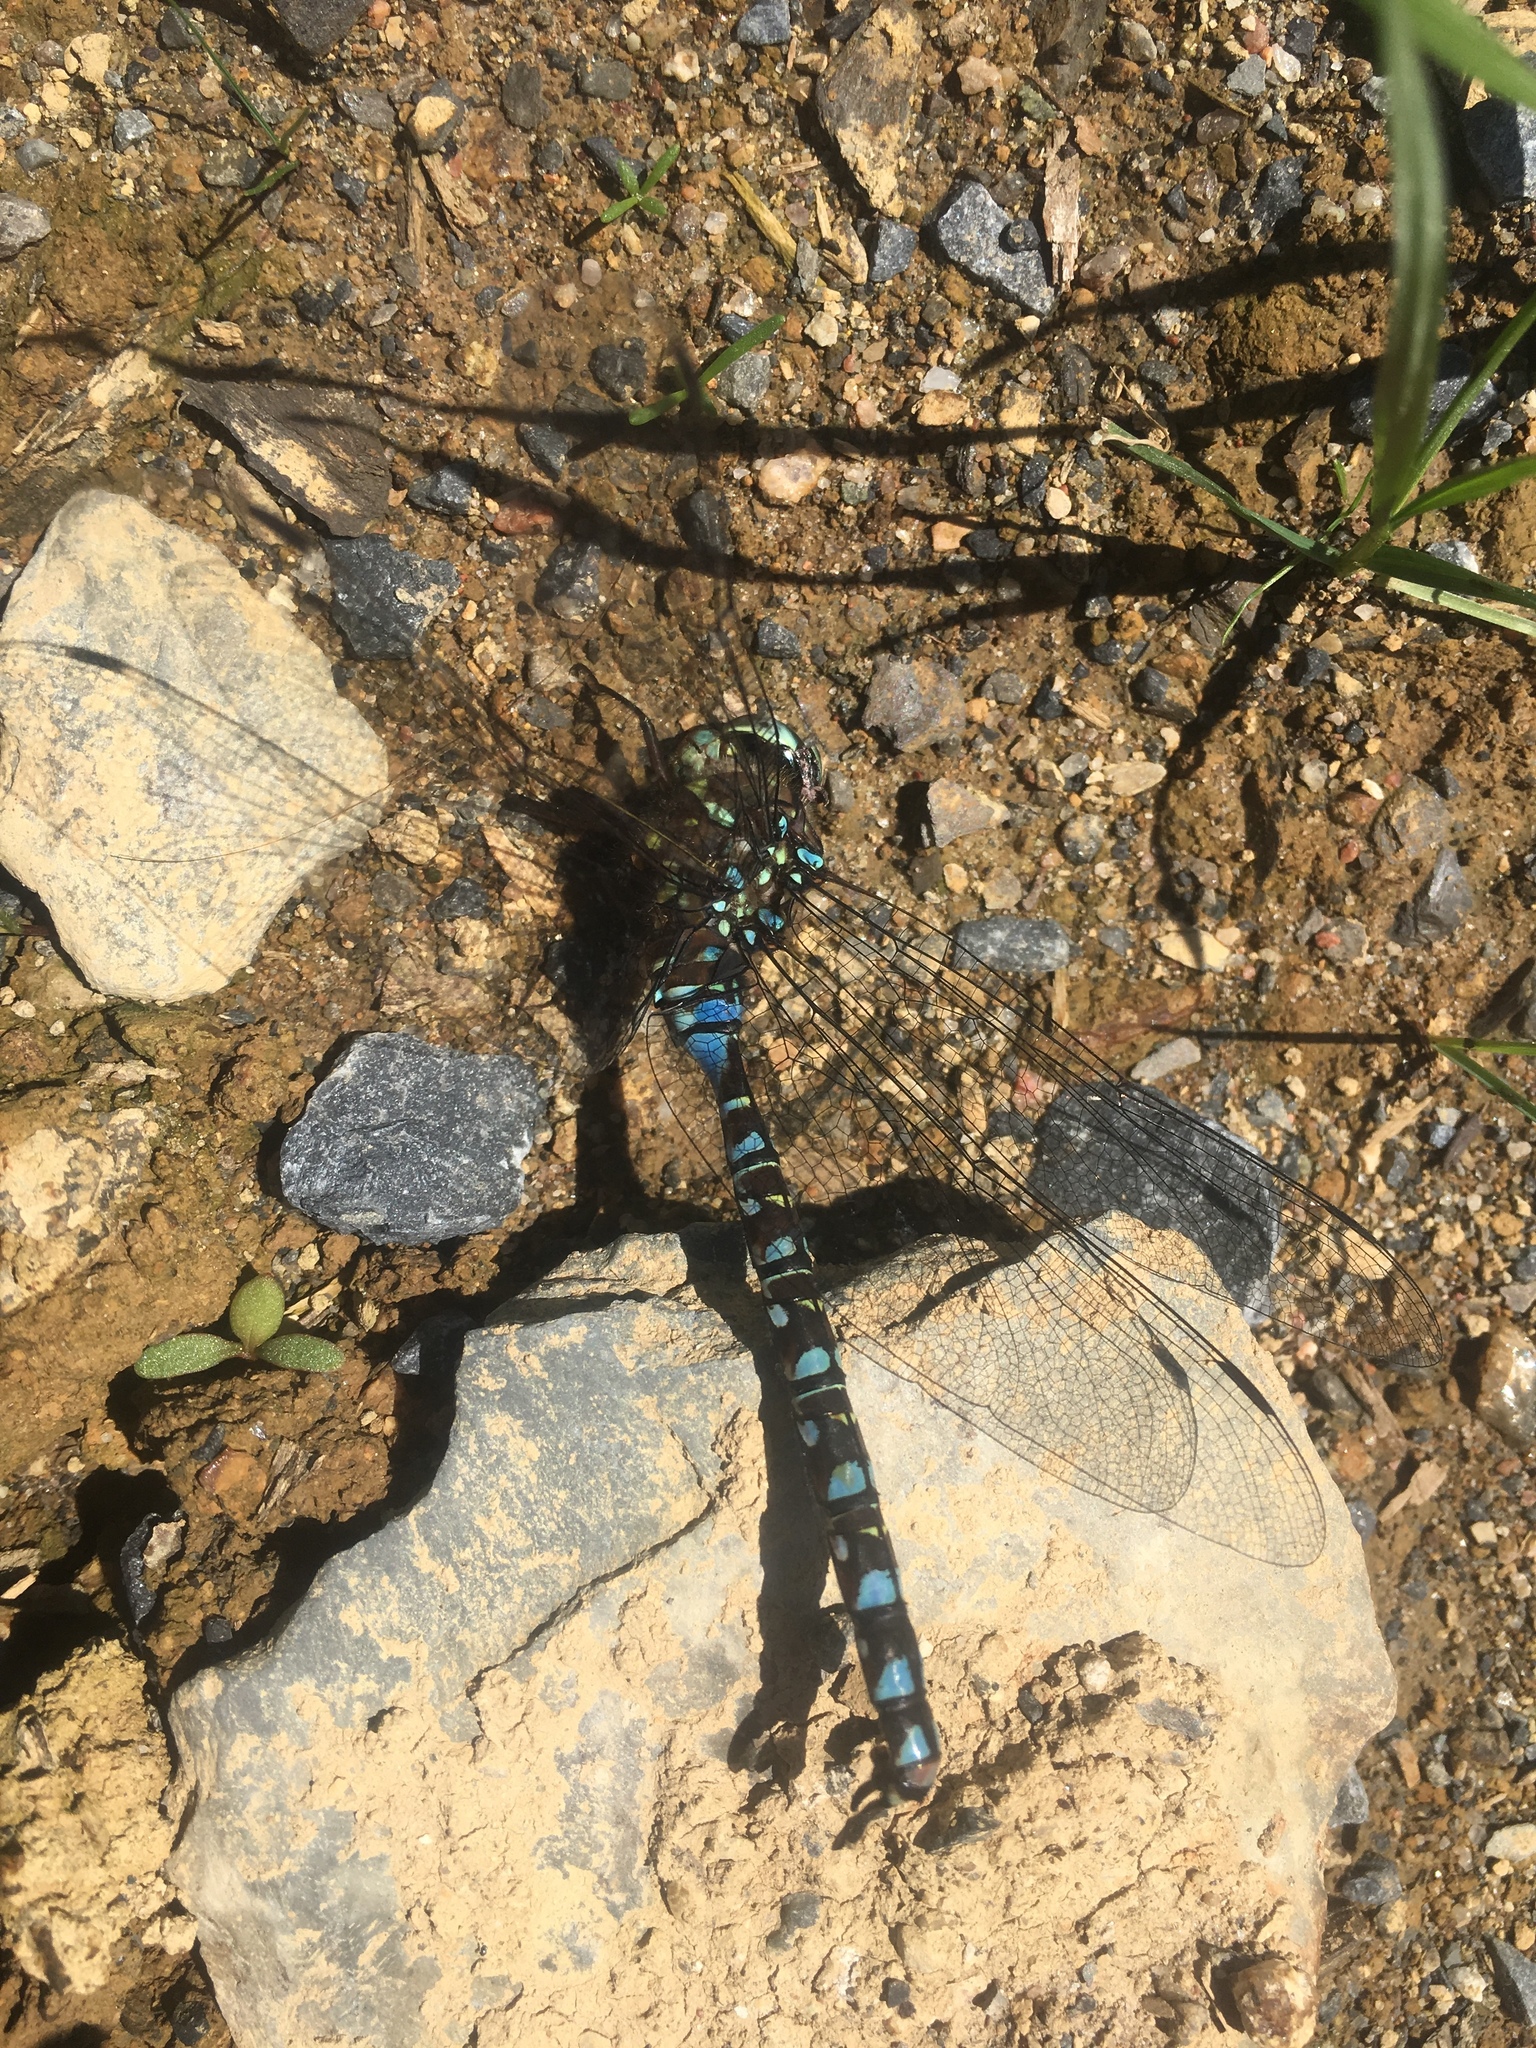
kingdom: Animalia
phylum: Arthropoda
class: Insecta
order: Odonata
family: Aeshnidae
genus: Aeshna
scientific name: Aeshna interrupta
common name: Variable darner
